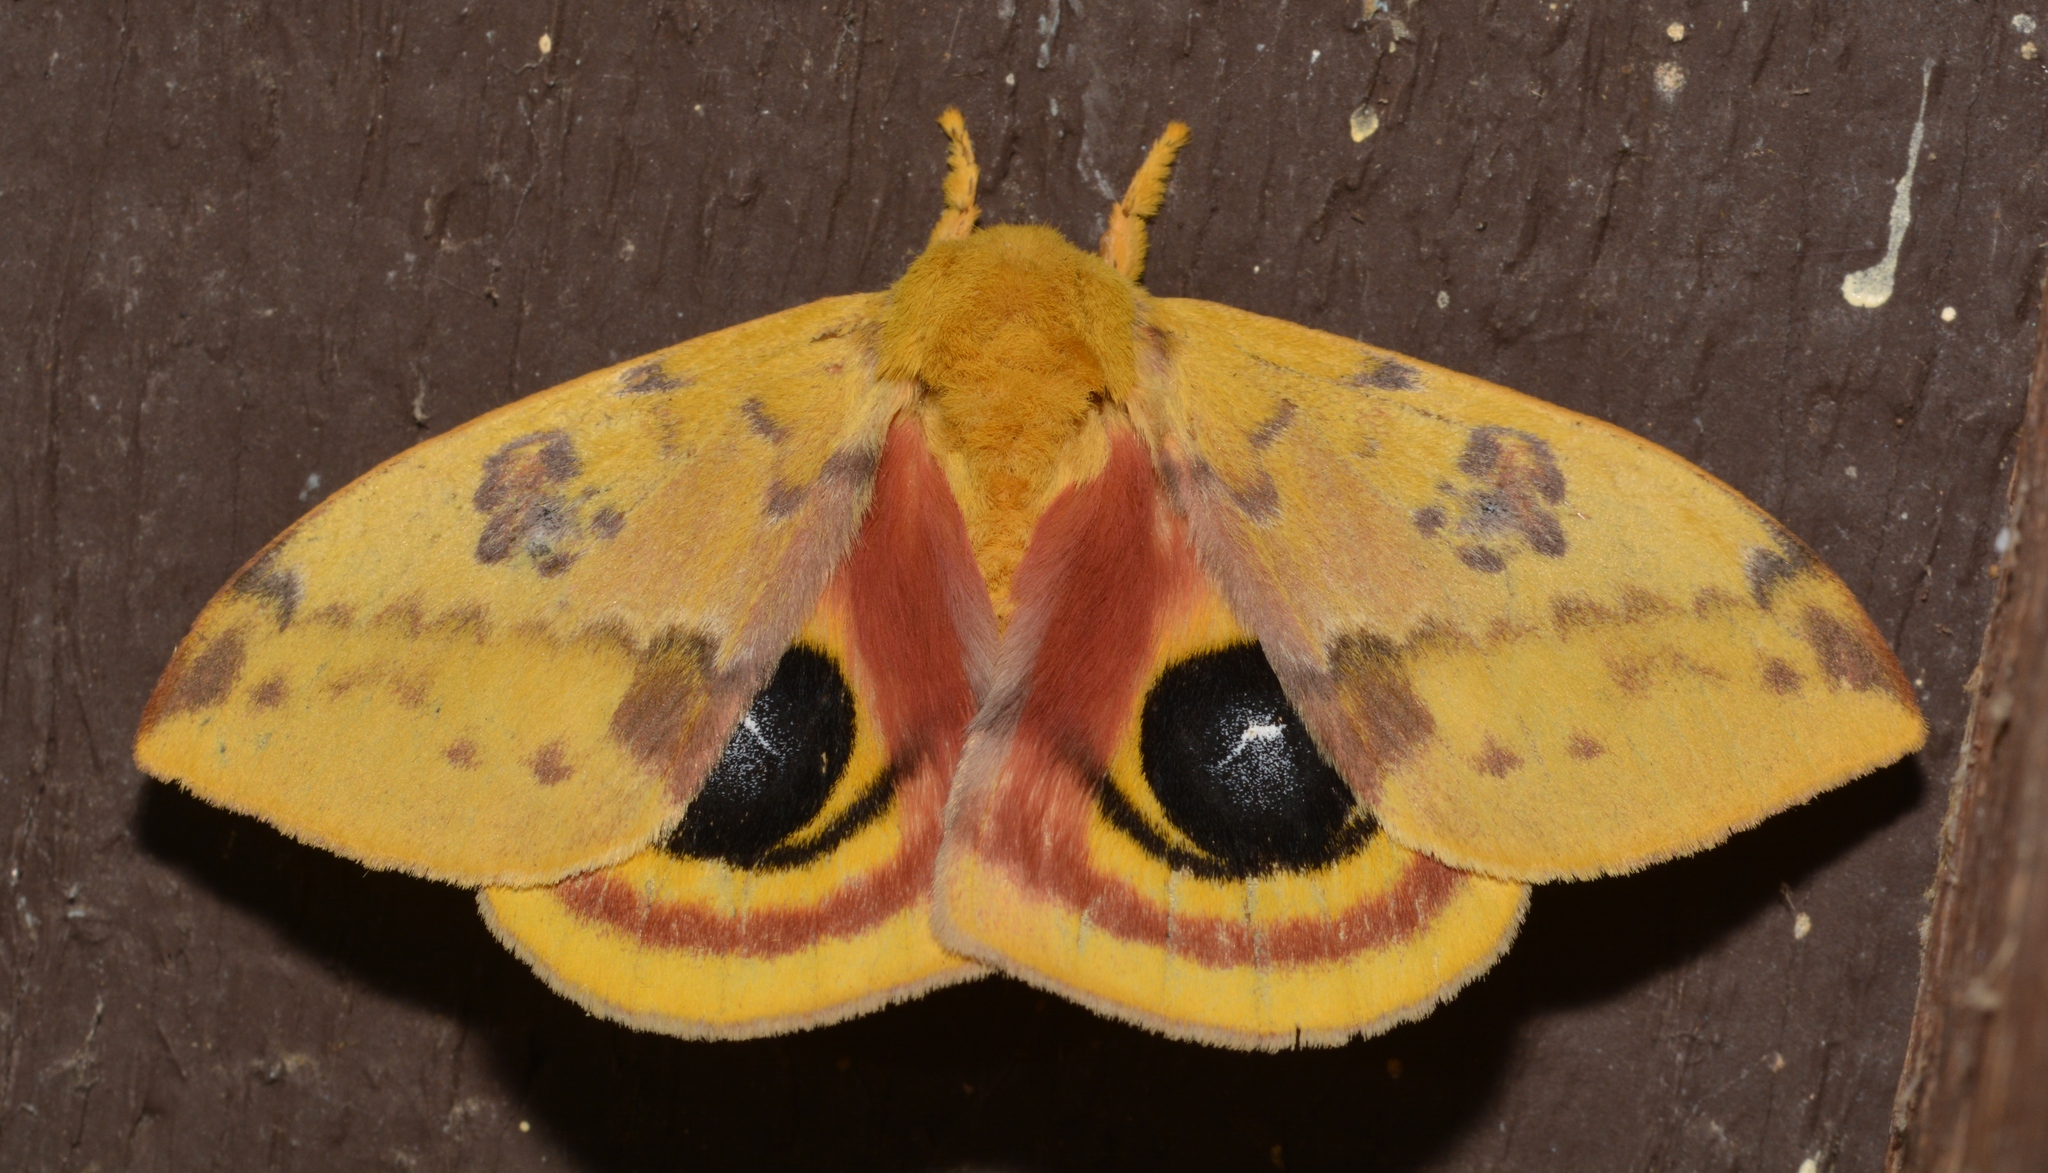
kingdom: Animalia
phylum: Arthropoda
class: Insecta
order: Lepidoptera
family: Saturniidae
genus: Automeris
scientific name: Automeris io
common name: Io moth
